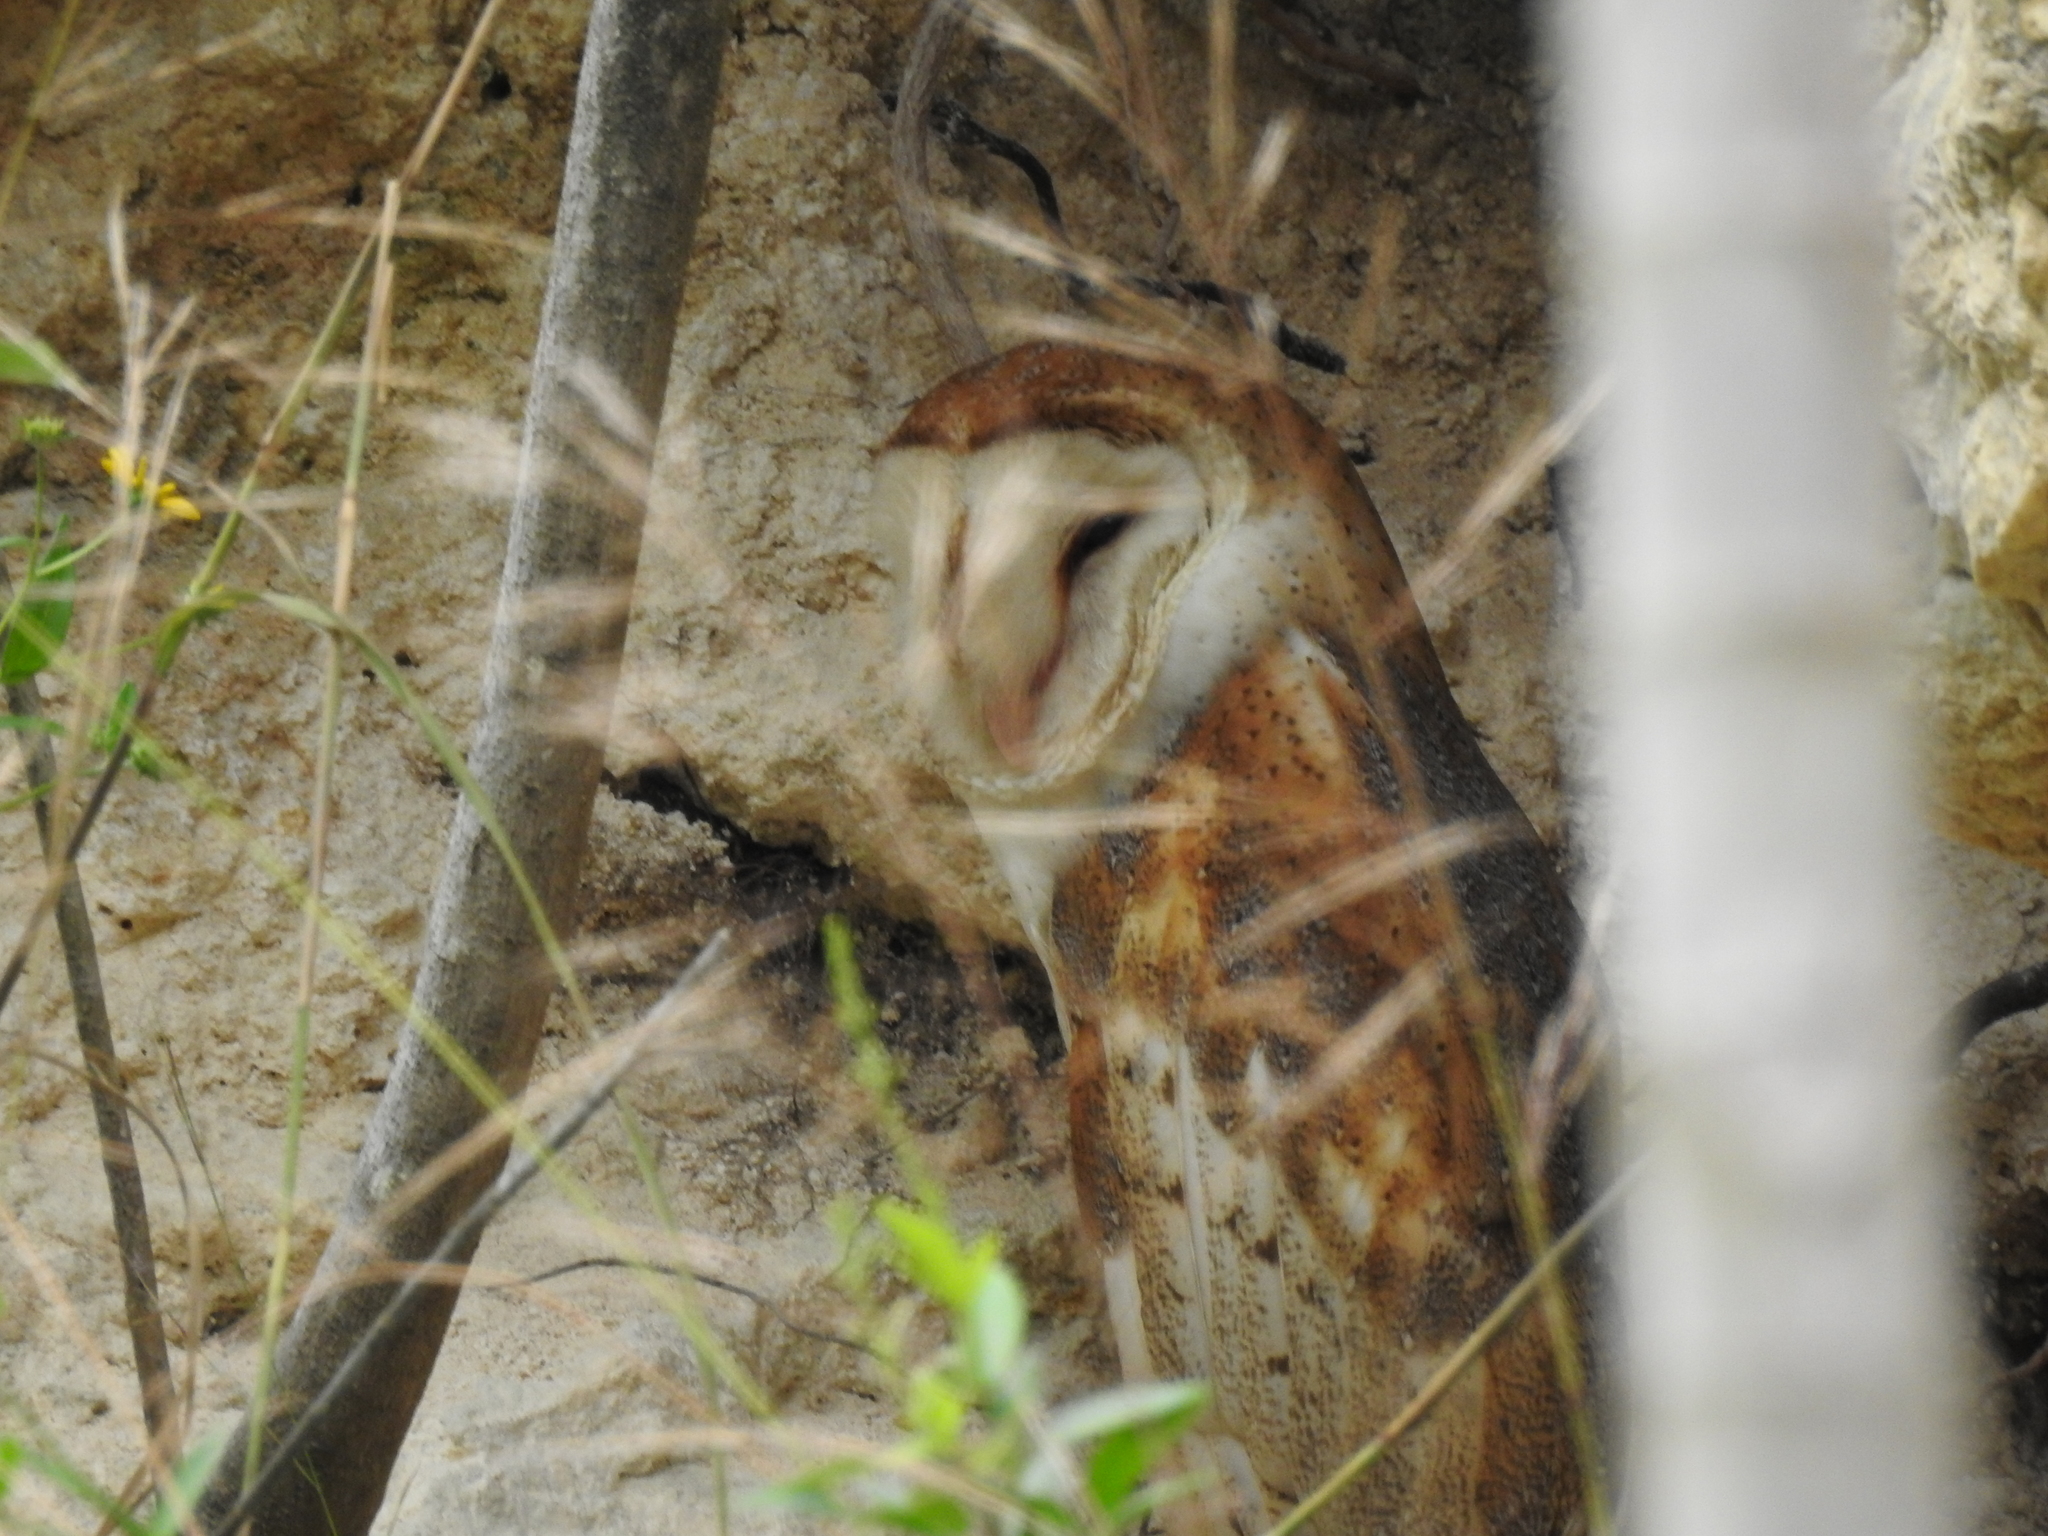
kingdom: Animalia
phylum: Chordata
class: Aves
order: Strigiformes
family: Tytonidae
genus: Tyto
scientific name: Tyto alba
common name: Barn owl
